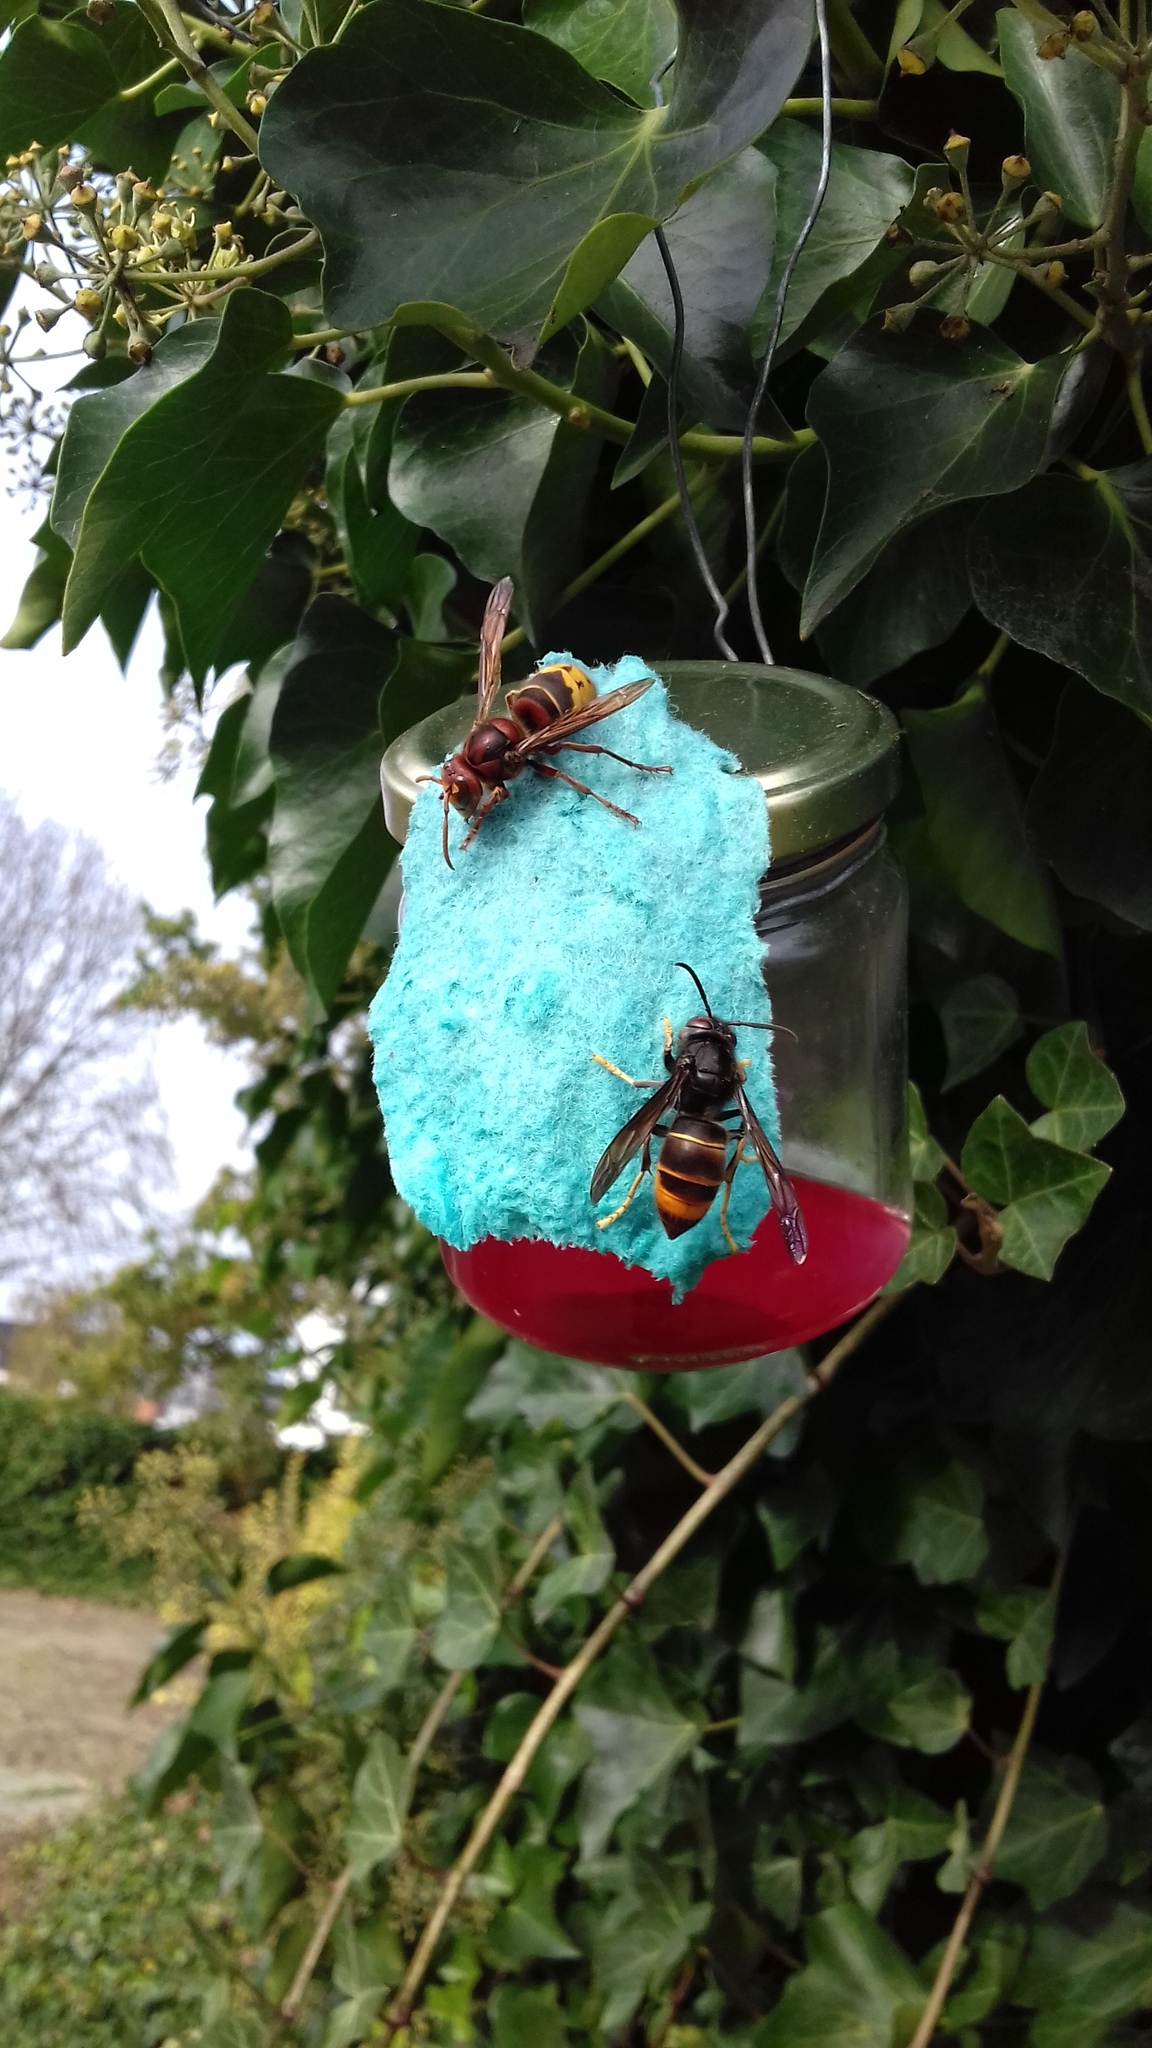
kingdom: Animalia
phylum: Arthropoda
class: Insecta
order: Hymenoptera
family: Vespidae
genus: Vespa
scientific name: Vespa velutina
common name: Asian hornet
